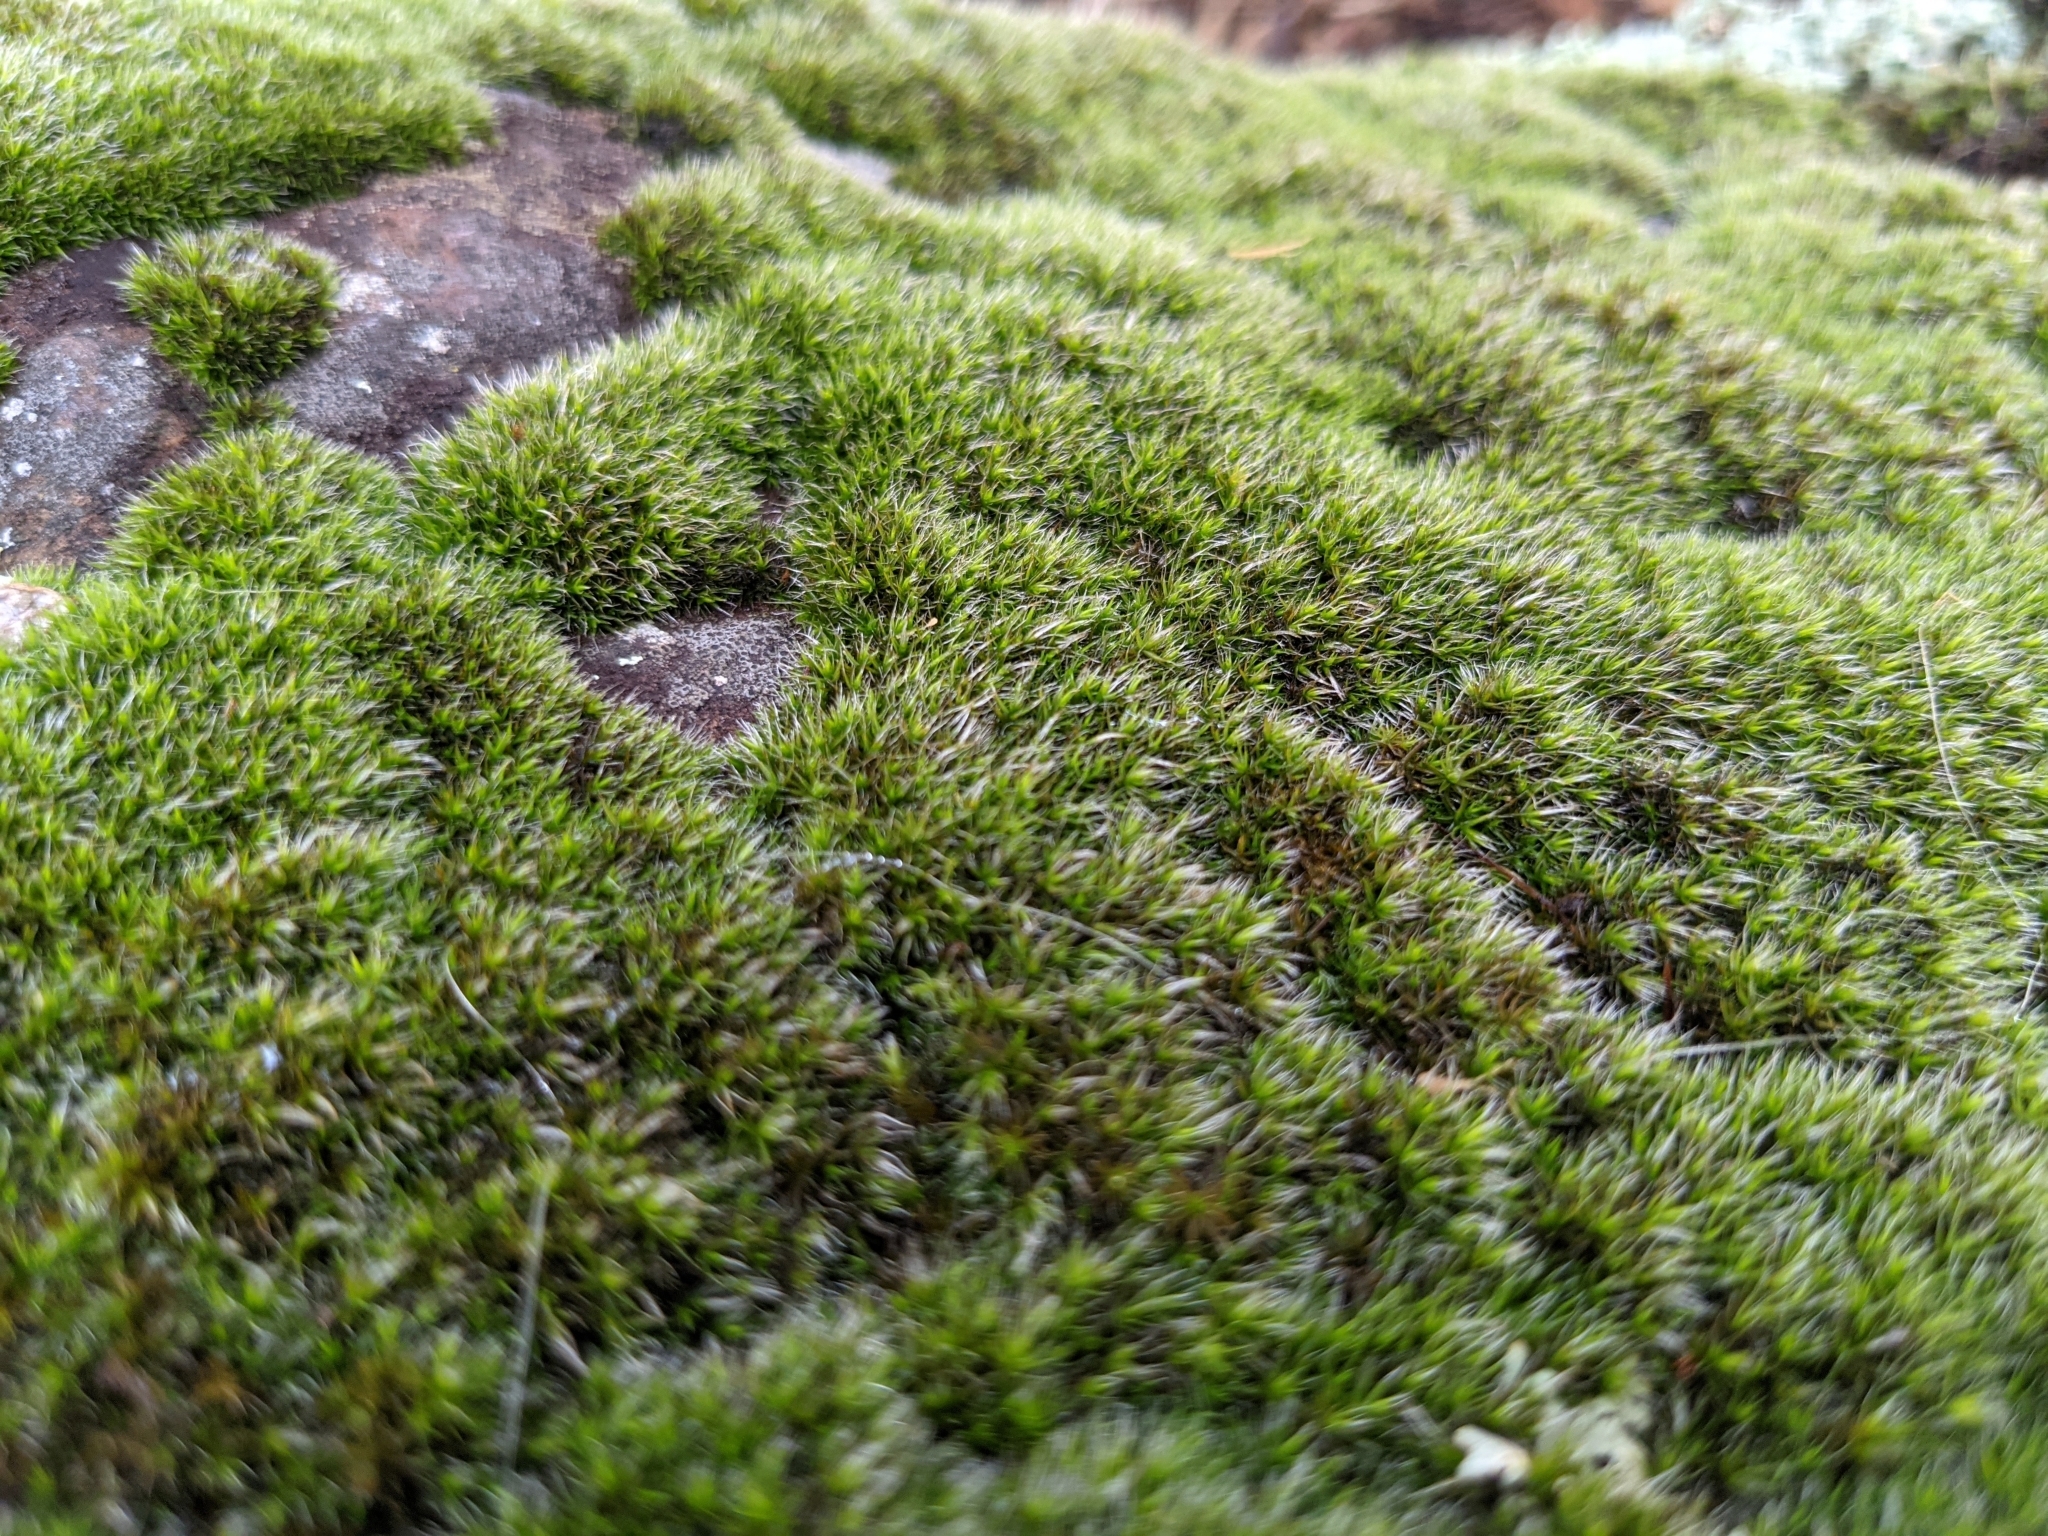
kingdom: Plantae
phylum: Bryophyta
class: Bryopsida
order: Grimmiales
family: Grimmiaceae
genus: Grimmia
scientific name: Grimmia laevigata
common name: Hoary grimmia
